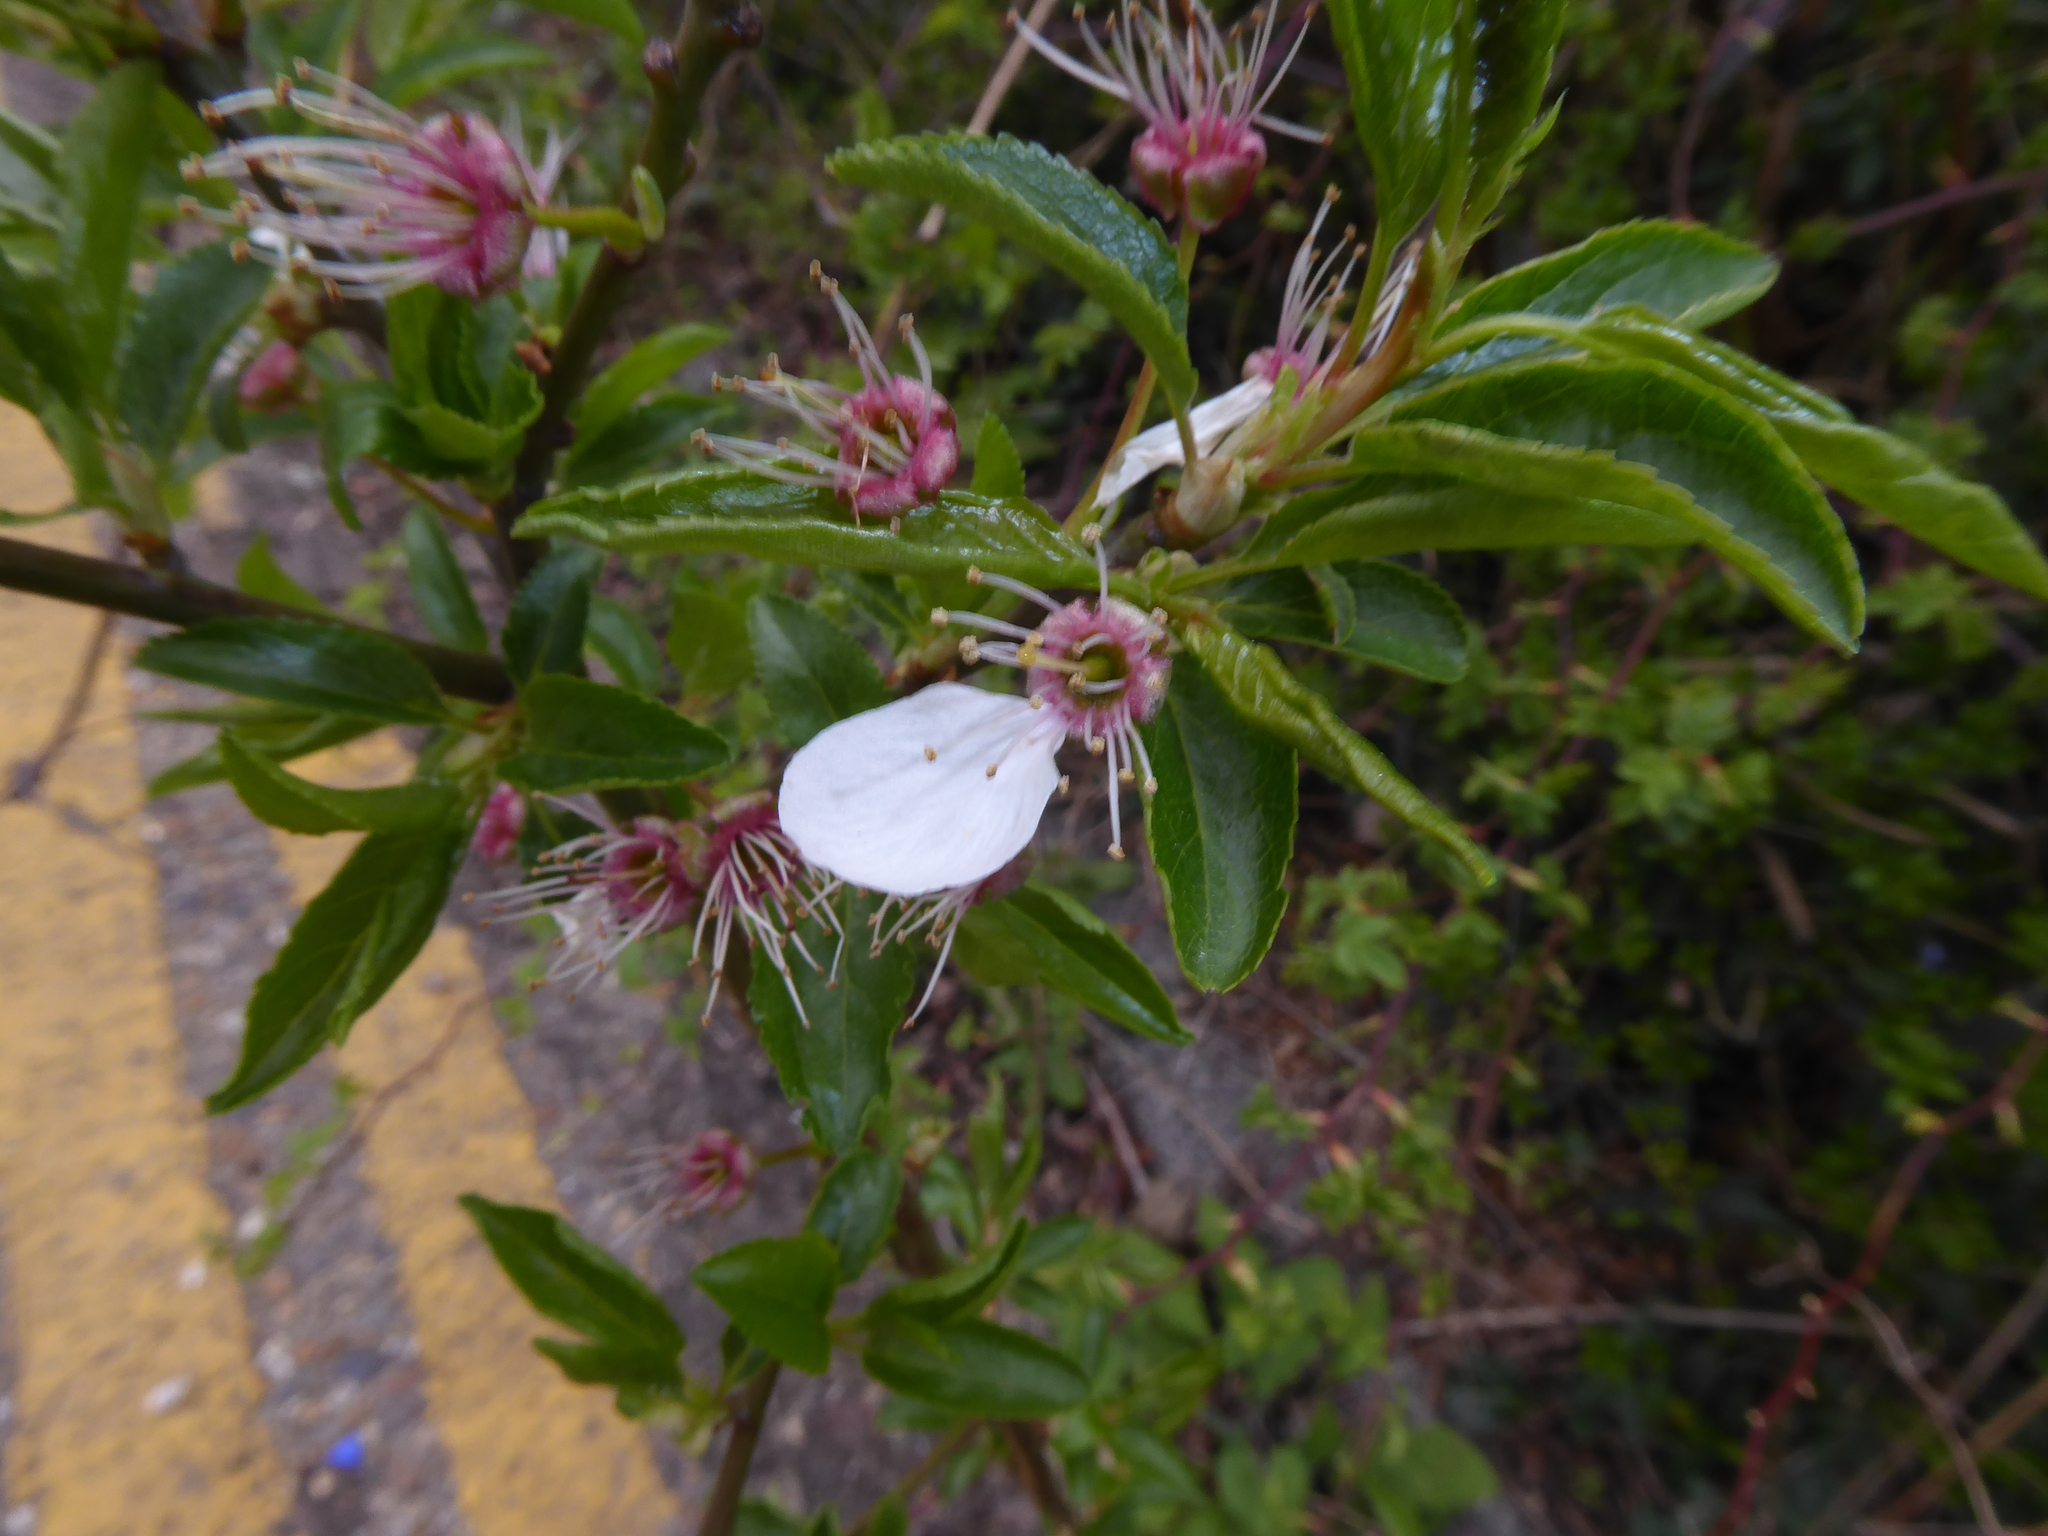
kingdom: Plantae
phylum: Tracheophyta
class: Magnoliopsida
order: Rosales
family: Rosaceae
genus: Prunus
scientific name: Prunus cerasifera
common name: Cherry plum
